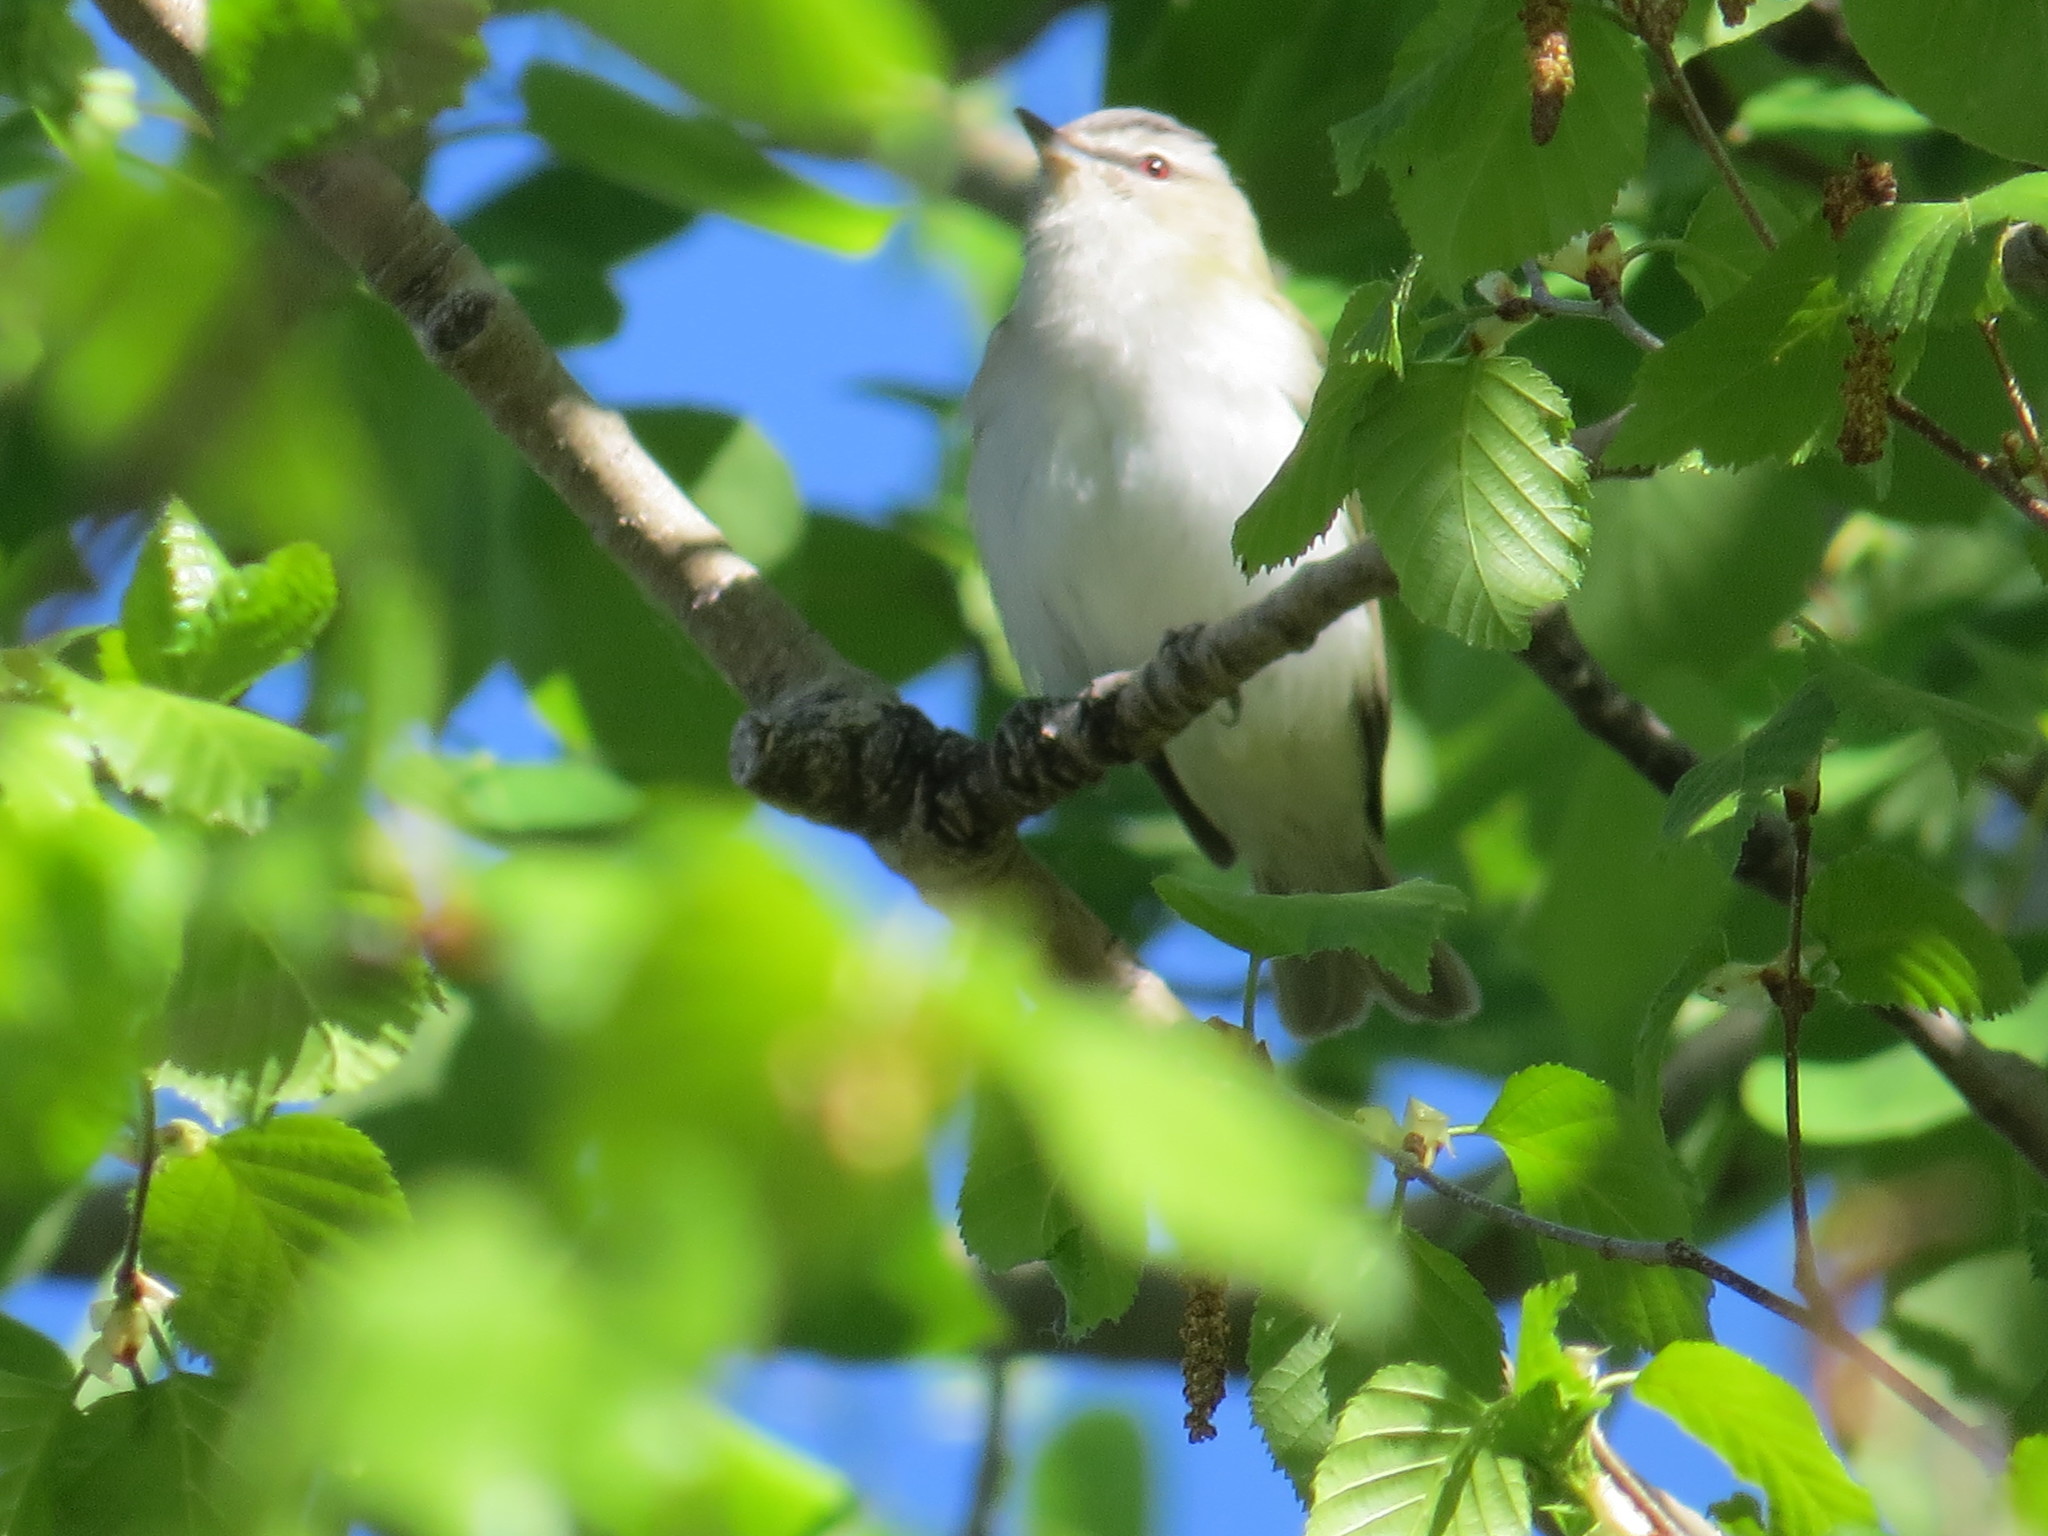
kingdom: Animalia
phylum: Chordata
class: Aves
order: Passeriformes
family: Vireonidae
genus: Vireo
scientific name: Vireo olivaceus
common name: Red-eyed vireo
